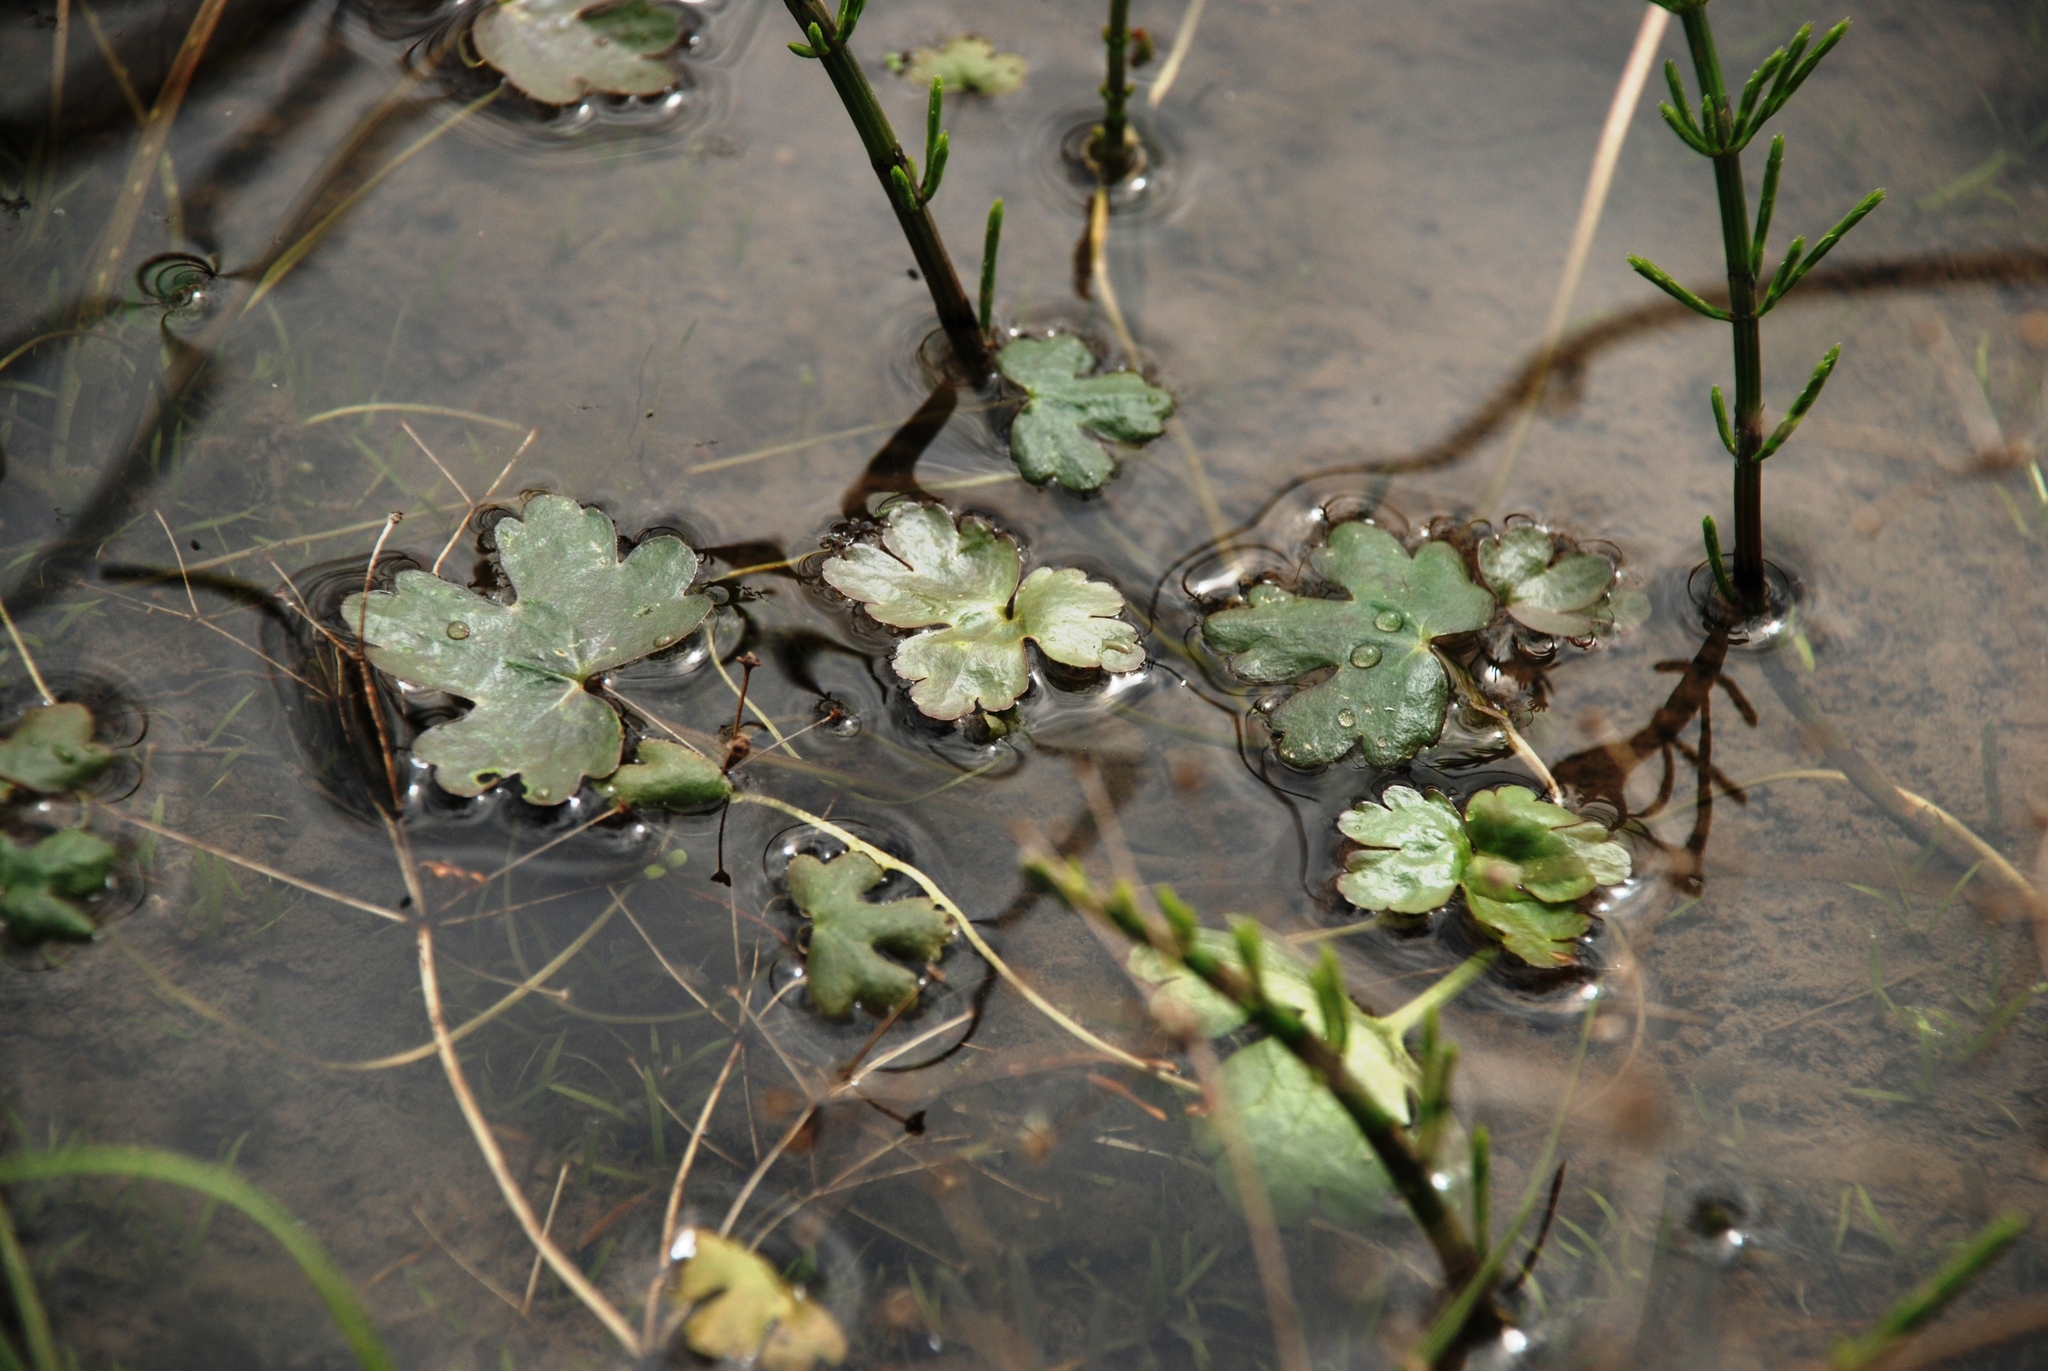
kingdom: Plantae
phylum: Tracheophyta
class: Magnoliopsida
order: Ranunculales
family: Ranunculaceae
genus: Ranunculus
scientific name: Ranunculus sceleratus
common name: Celery-leaved buttercup
